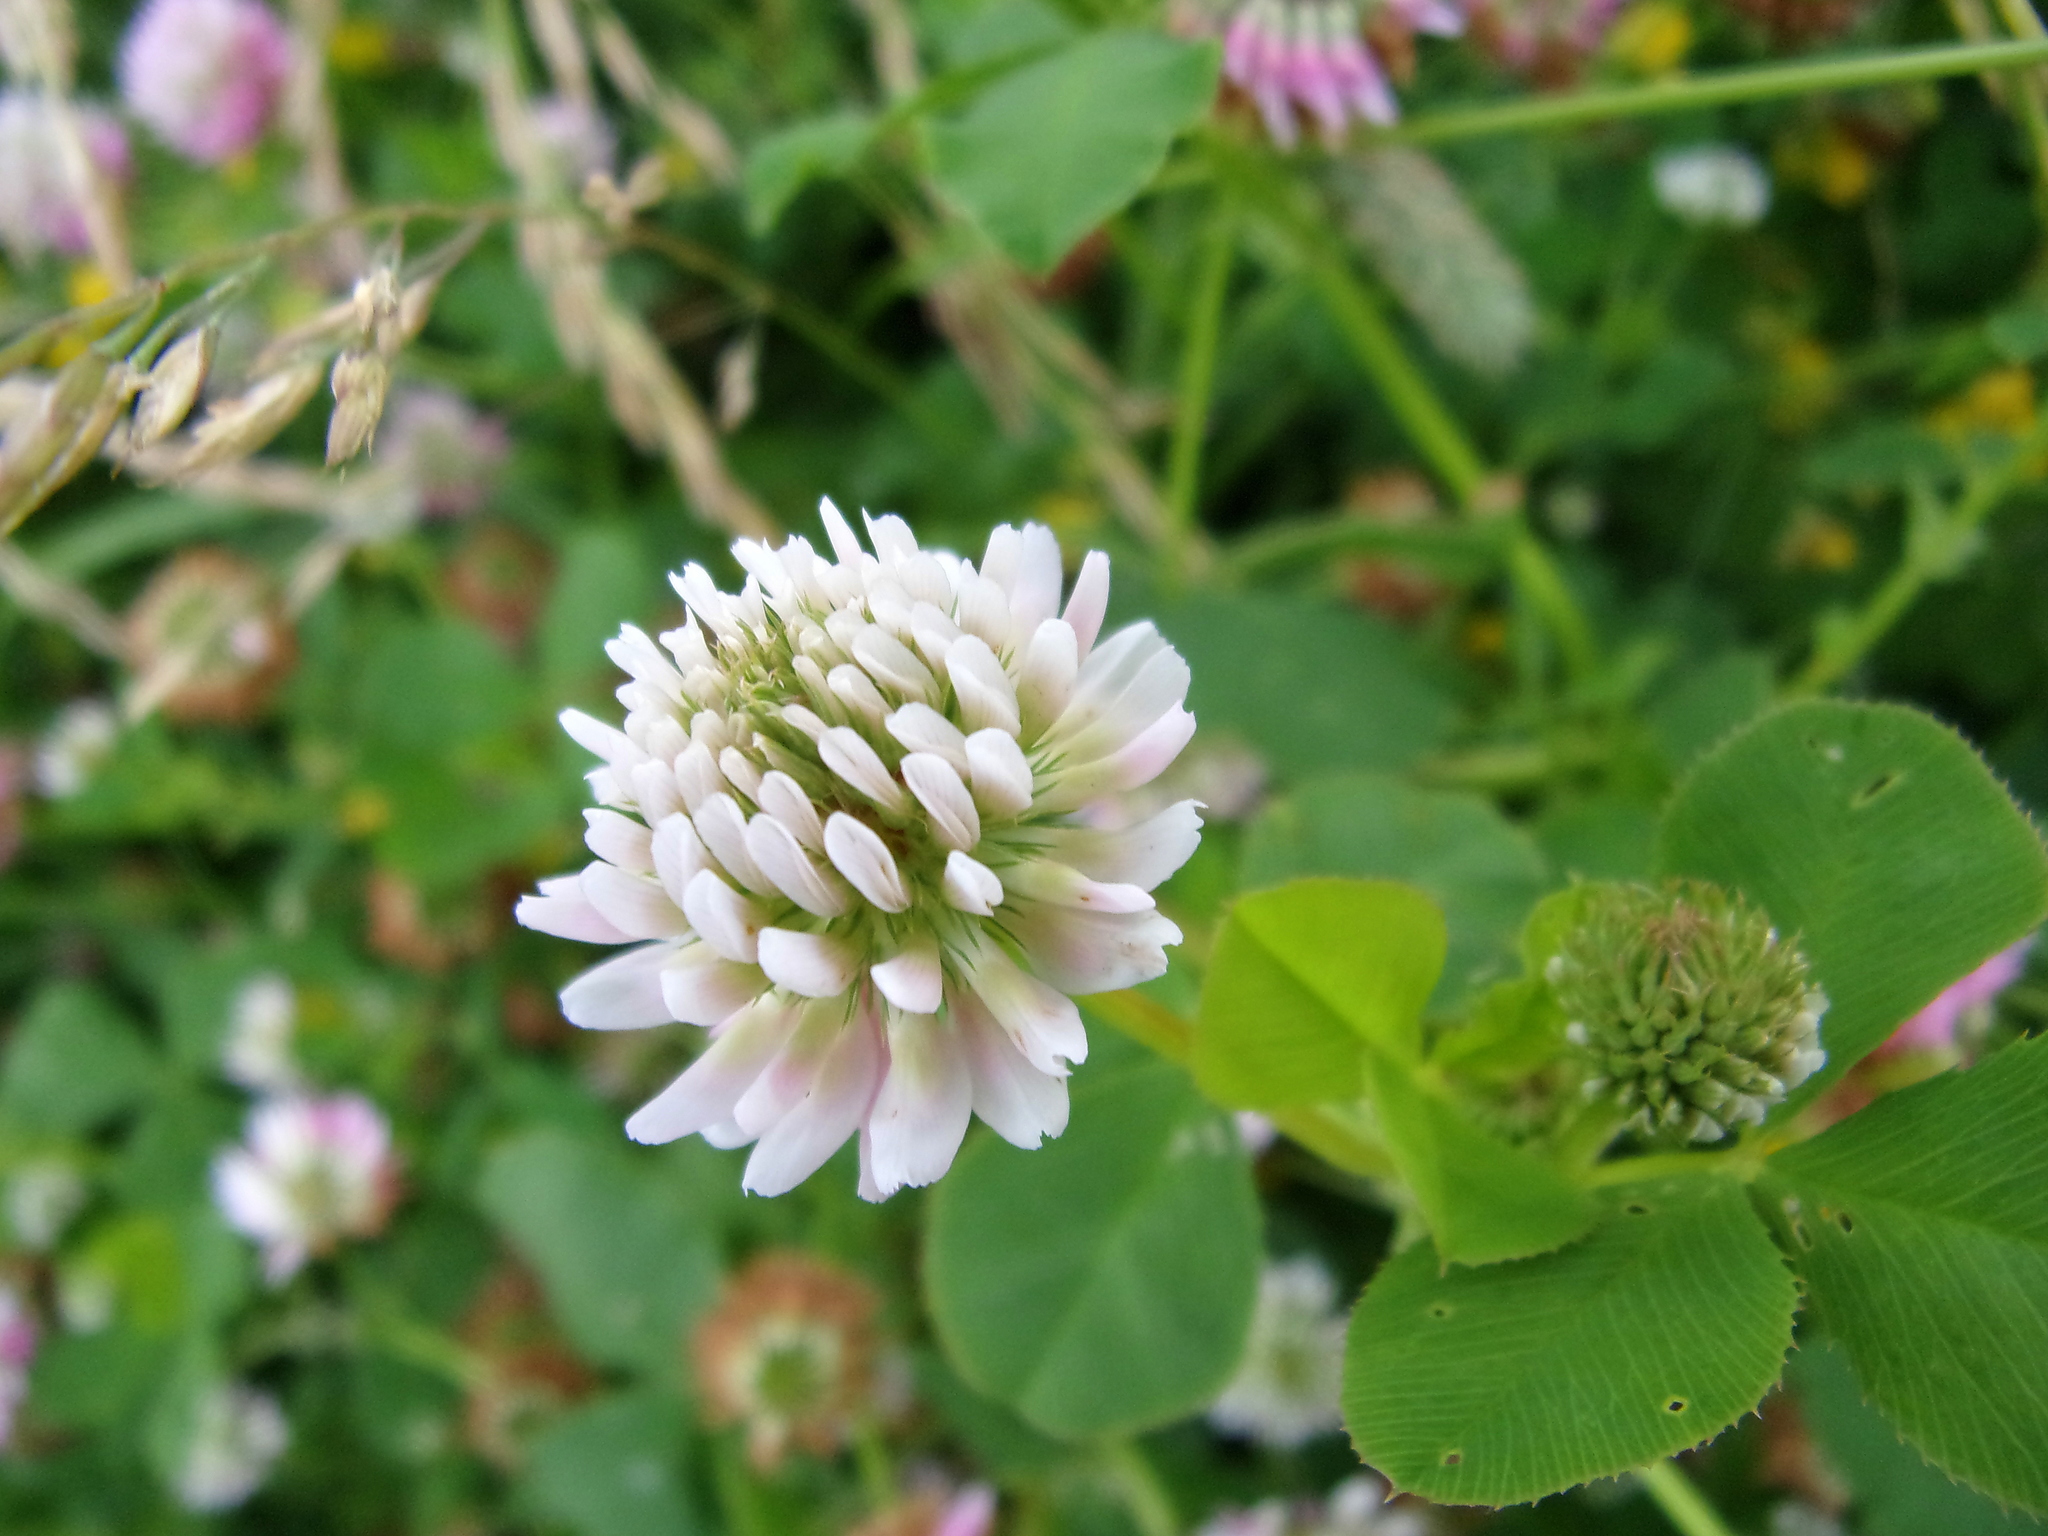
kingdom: Plantae
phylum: Tracheophyta
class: Magnoliopsida
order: Fabales
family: Fabaceae
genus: Trifolium
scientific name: Trifolium repens
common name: White clover
